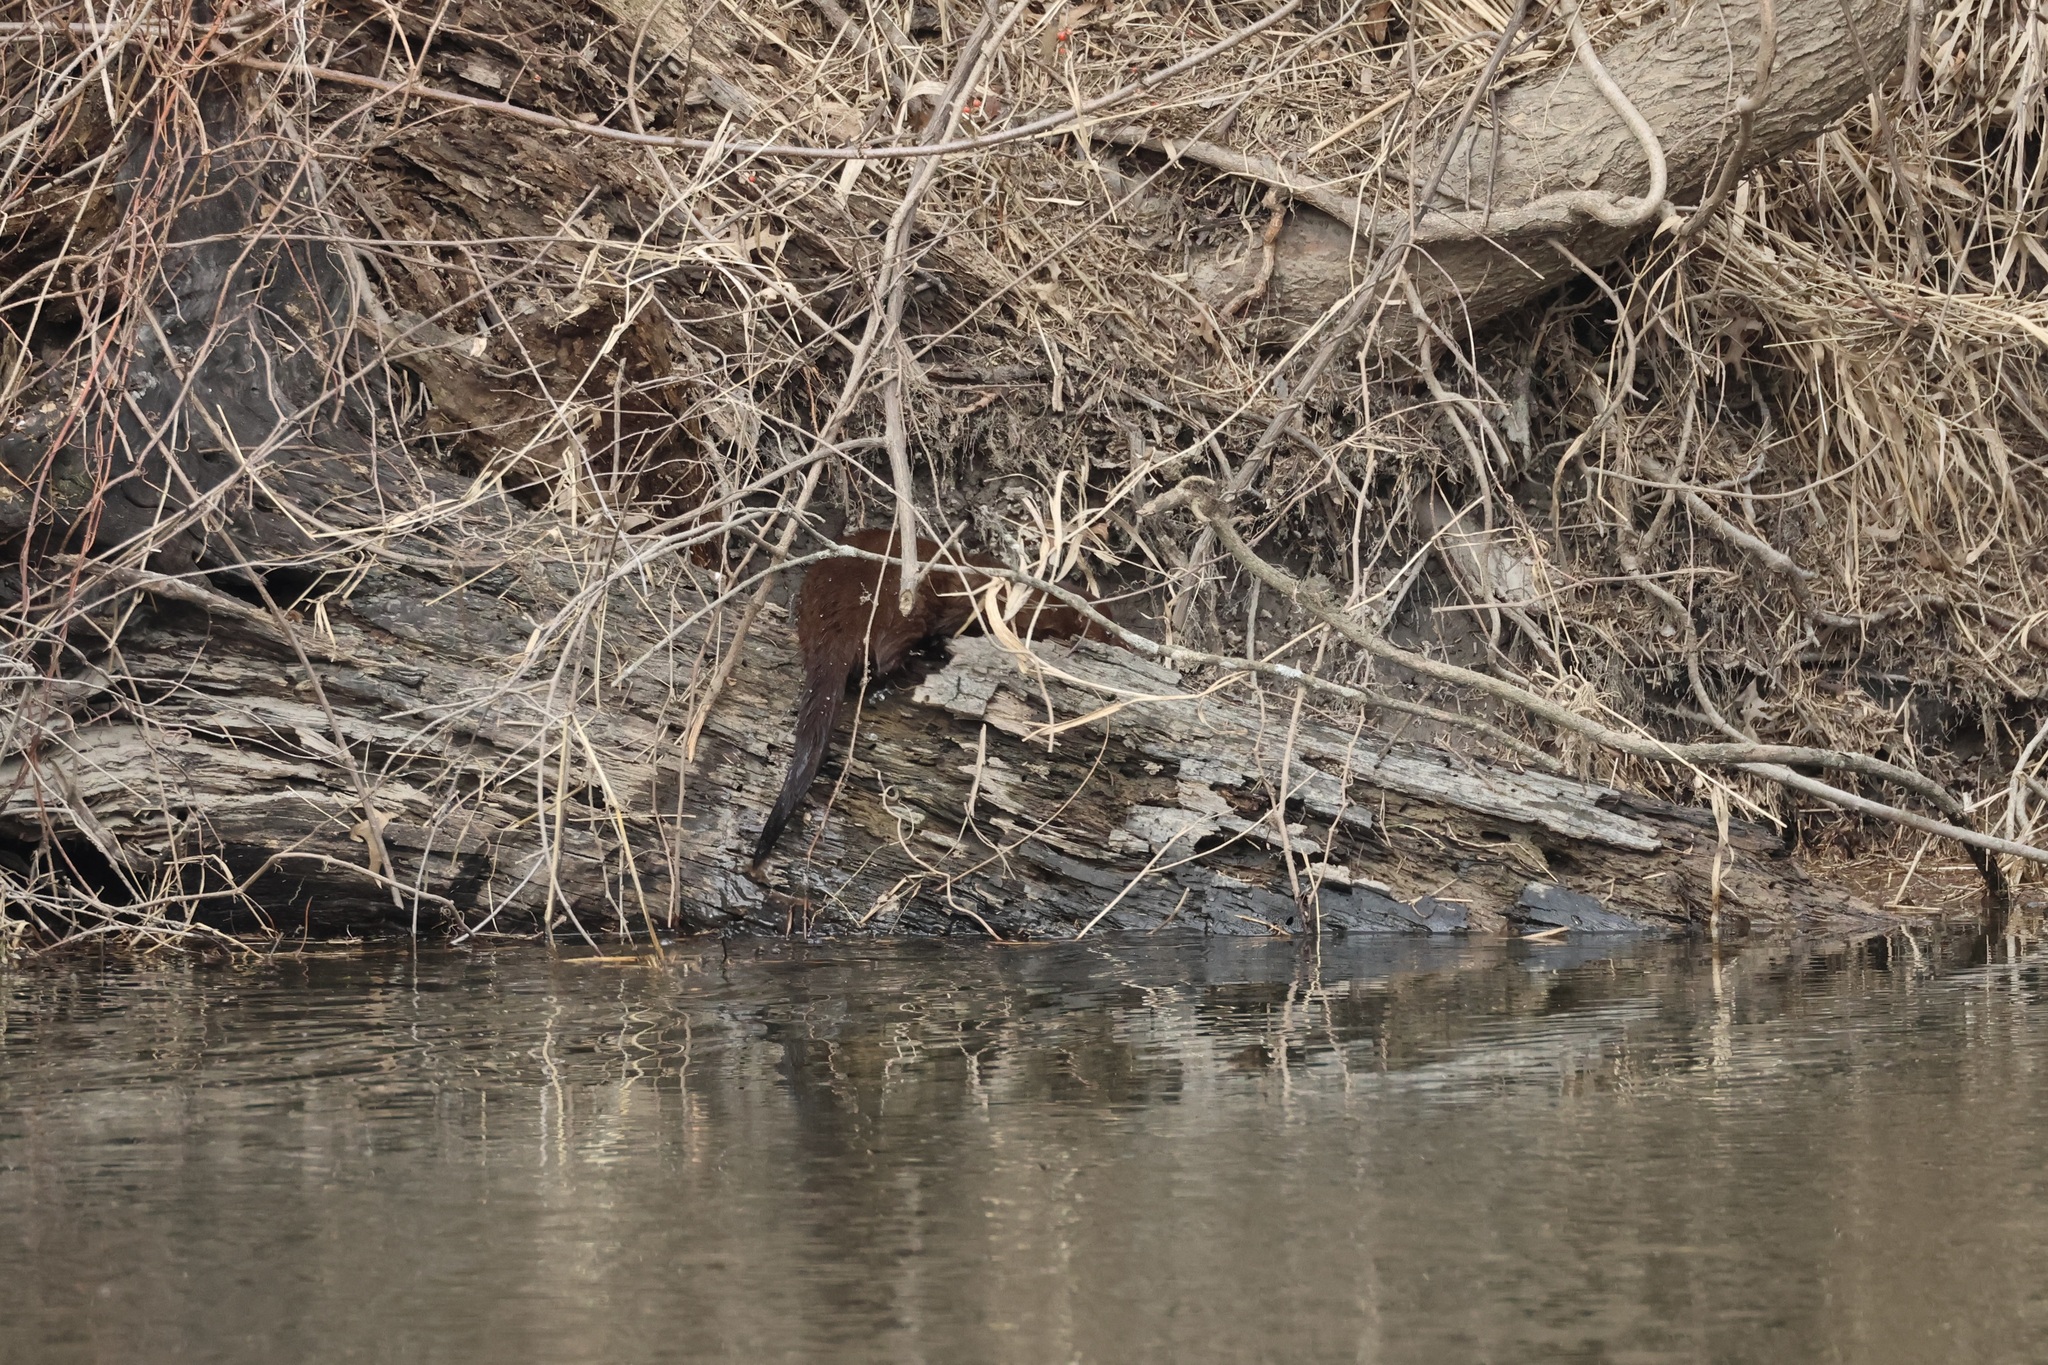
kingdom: Animalia
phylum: Chordata
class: Mammalia
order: Carnivora
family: Mustelidae
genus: Mustela
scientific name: Mustela
